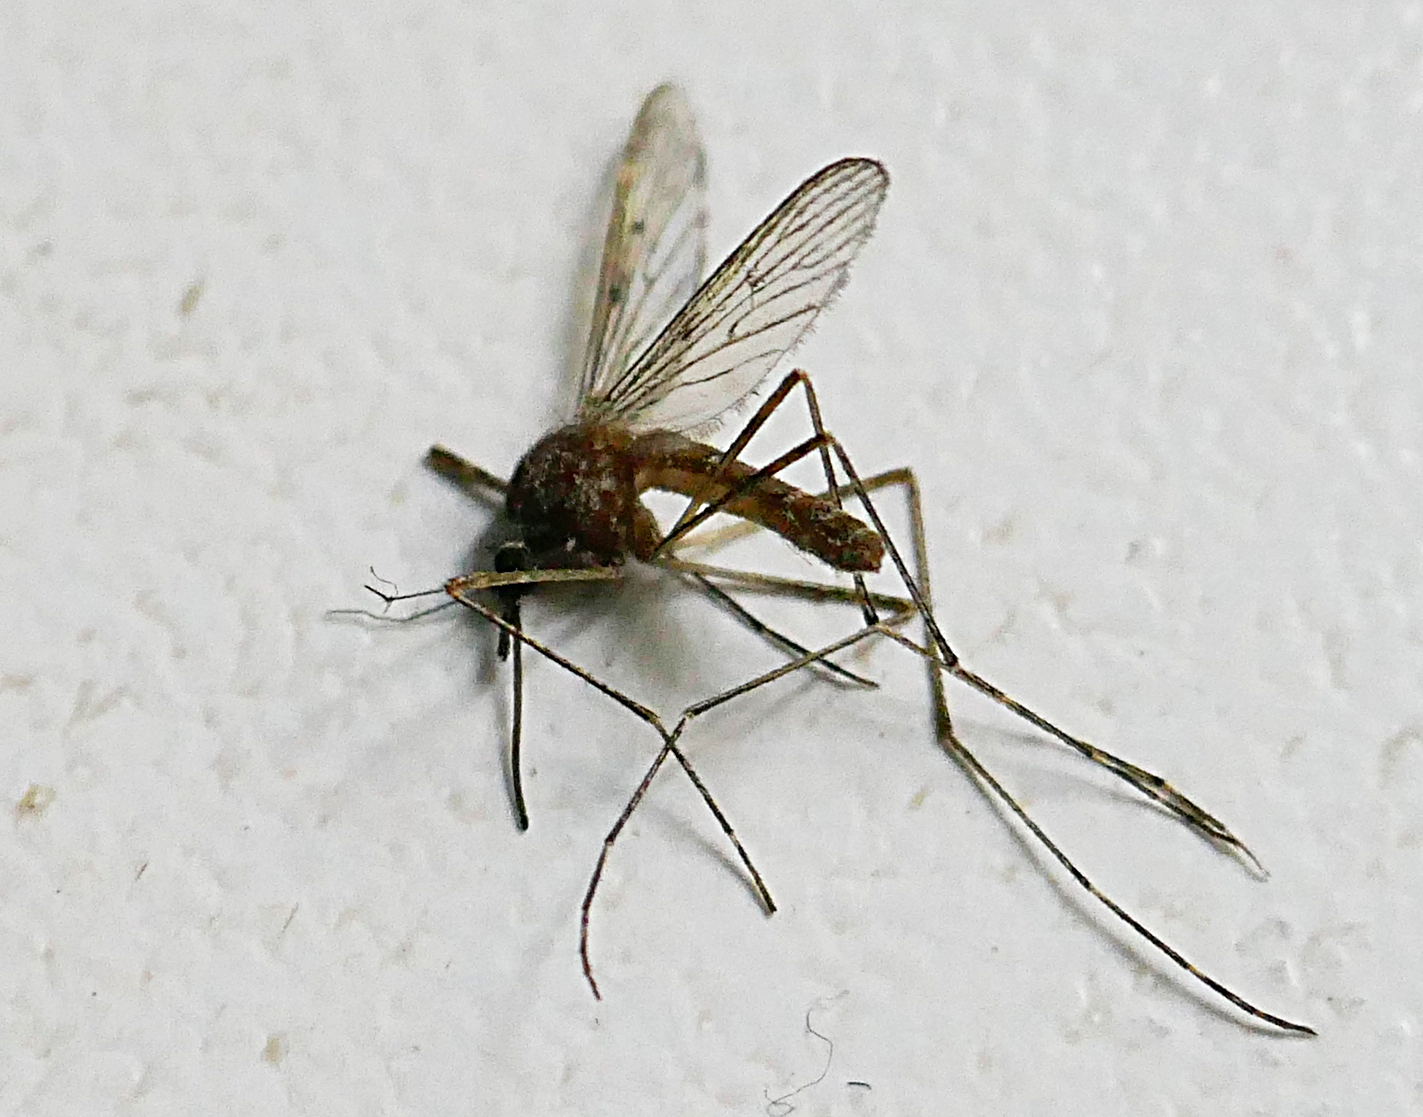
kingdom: Animalia
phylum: Arthropoda
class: Insecta
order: Diptera
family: Culicidae
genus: Culiseta
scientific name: Culiseta longiareolata
